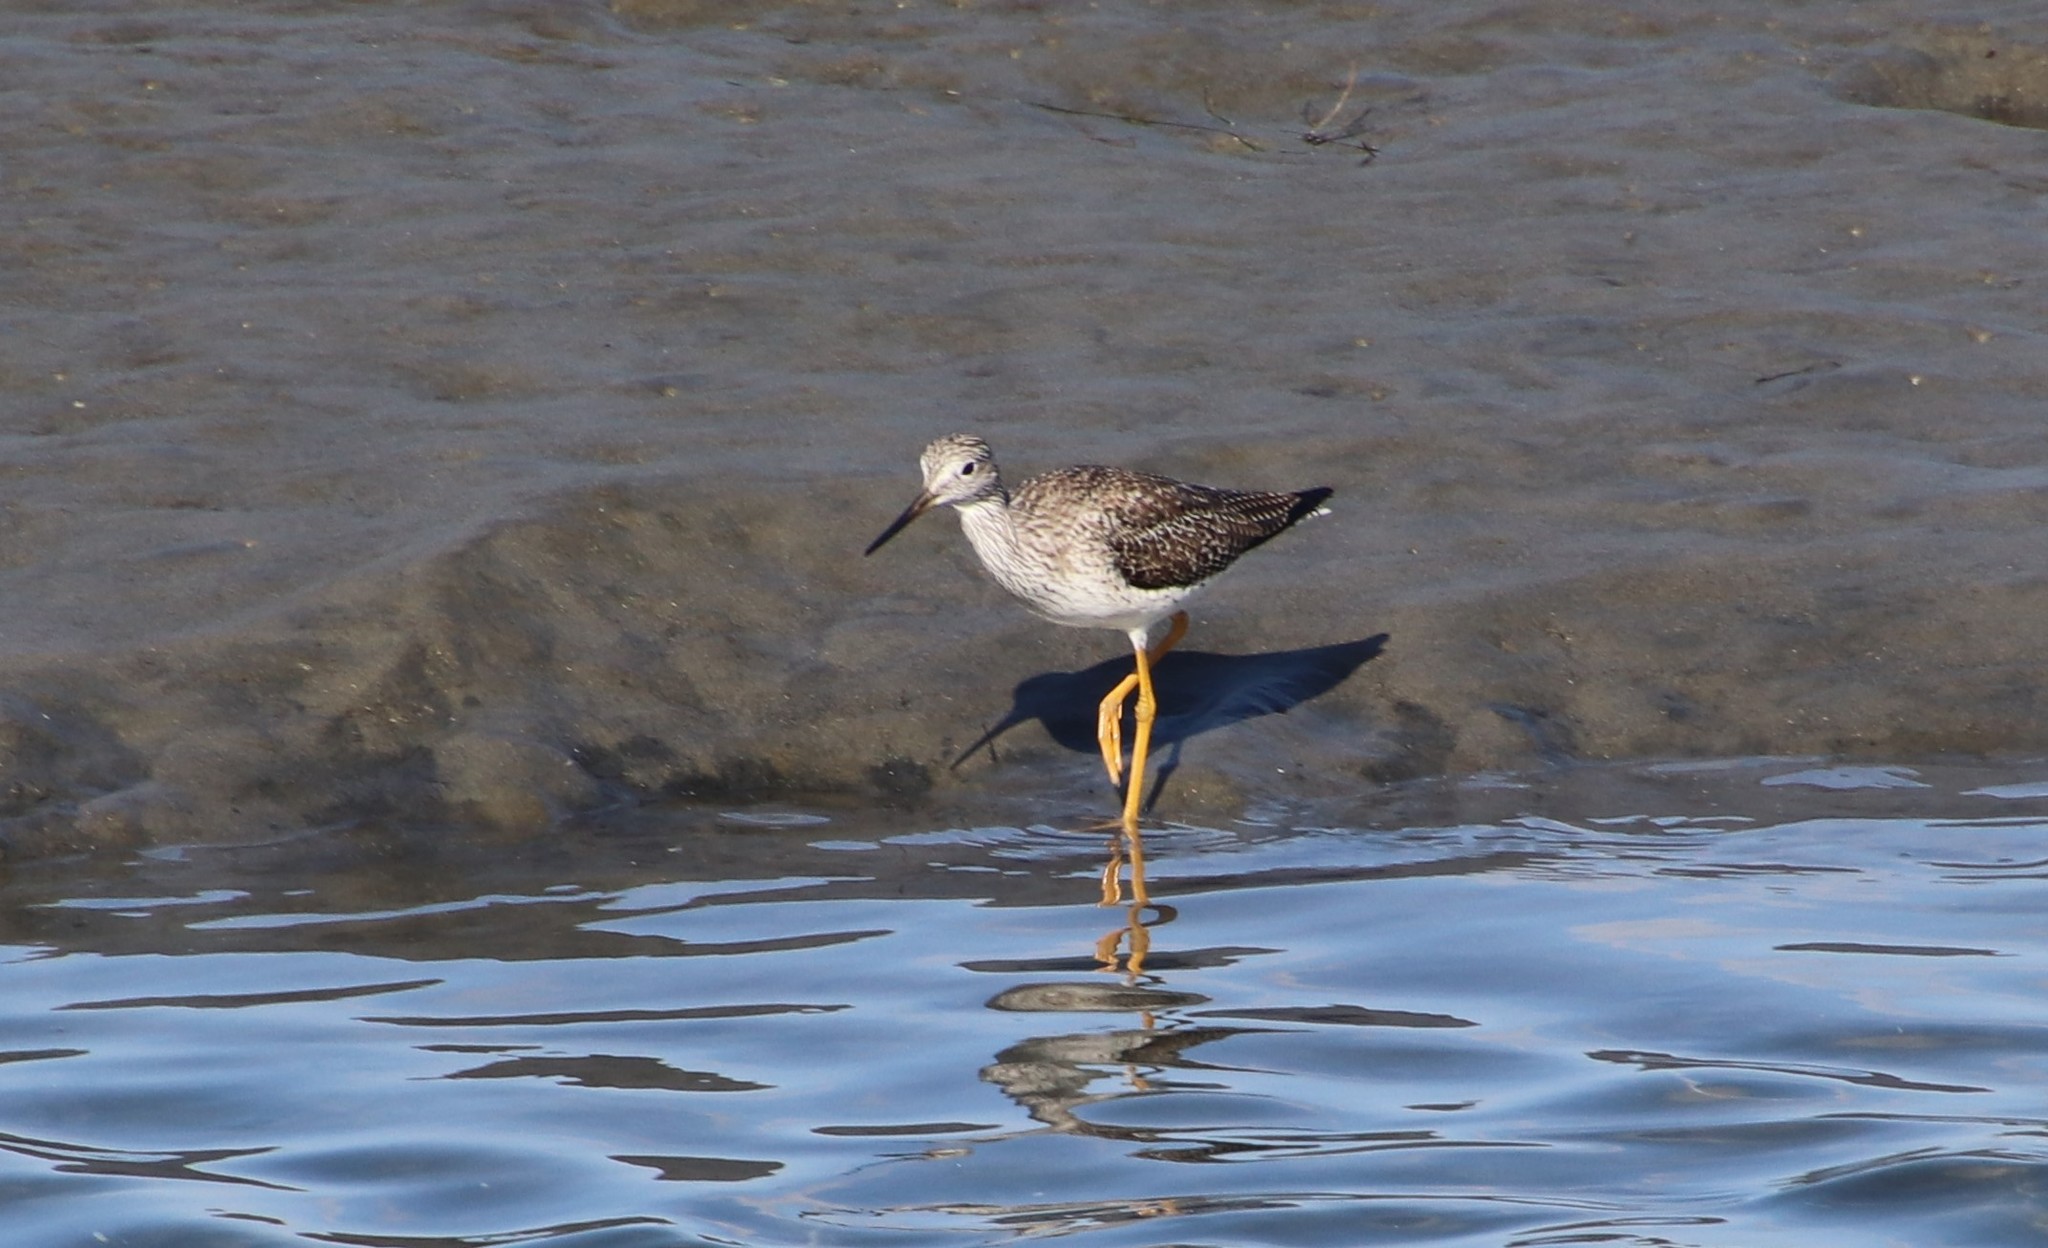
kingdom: Animalia
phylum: Chordata
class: Aves
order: Charadriiformes
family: Scolopacidae
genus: Tringa
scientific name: Tringa melanoleuca
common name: Greater yellowlegs
